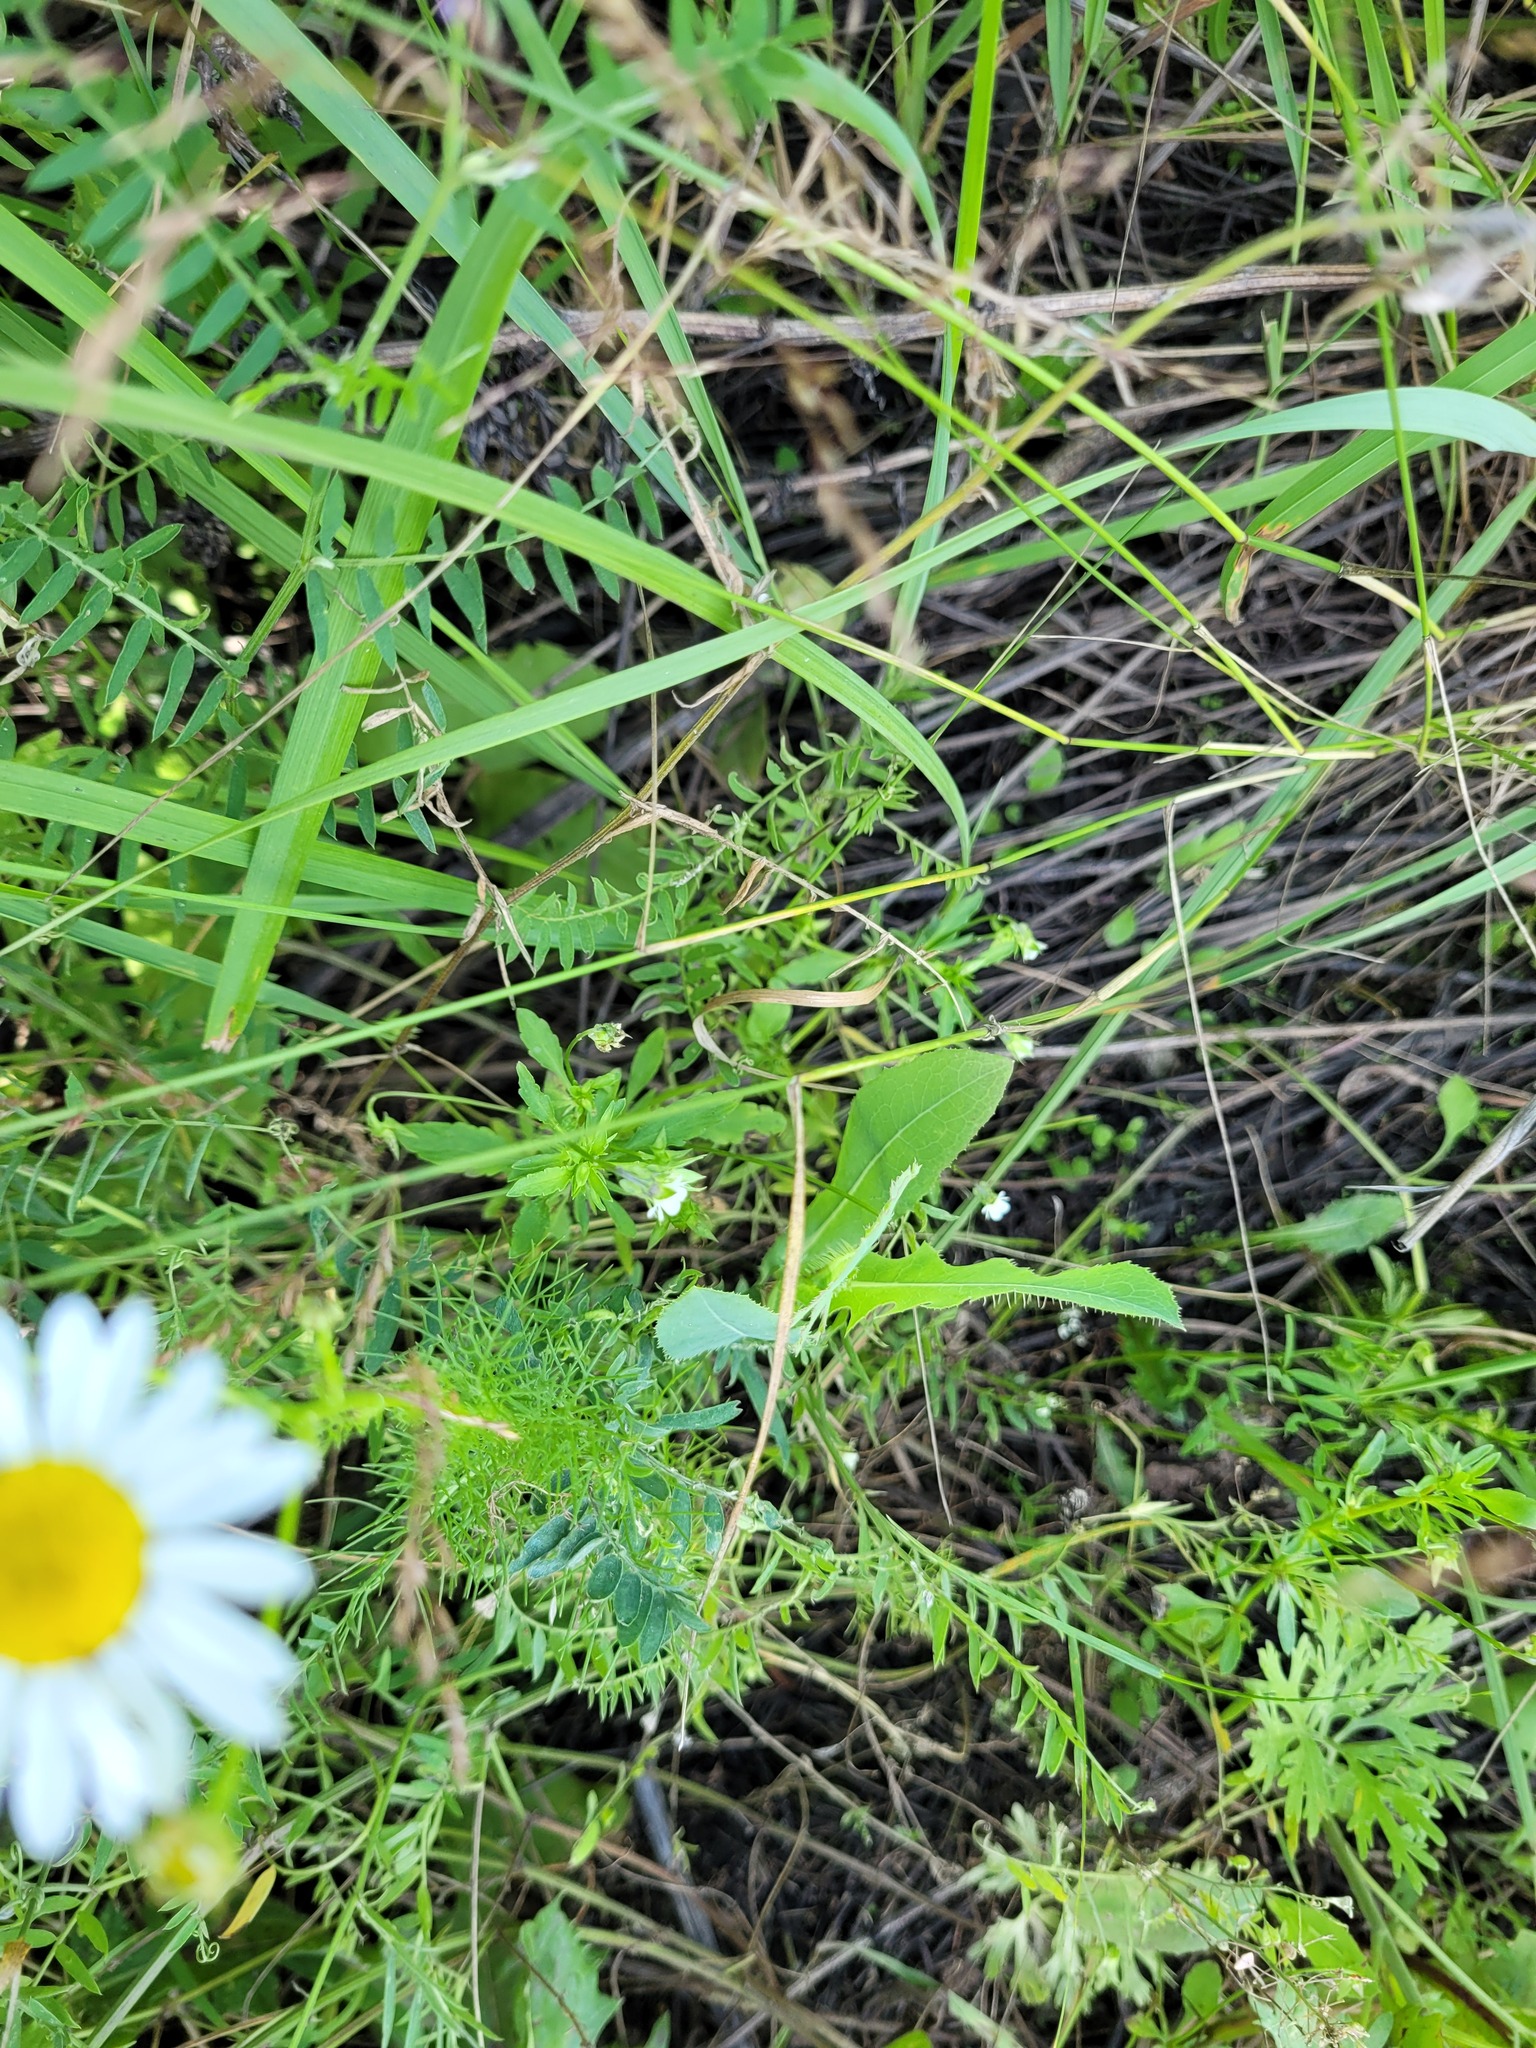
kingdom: Plantae
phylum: Tracheophyta
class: Magnoliopsida
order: Malpighiales
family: Violaceae
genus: Viola
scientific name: Viola arvensis
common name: Field pansy
